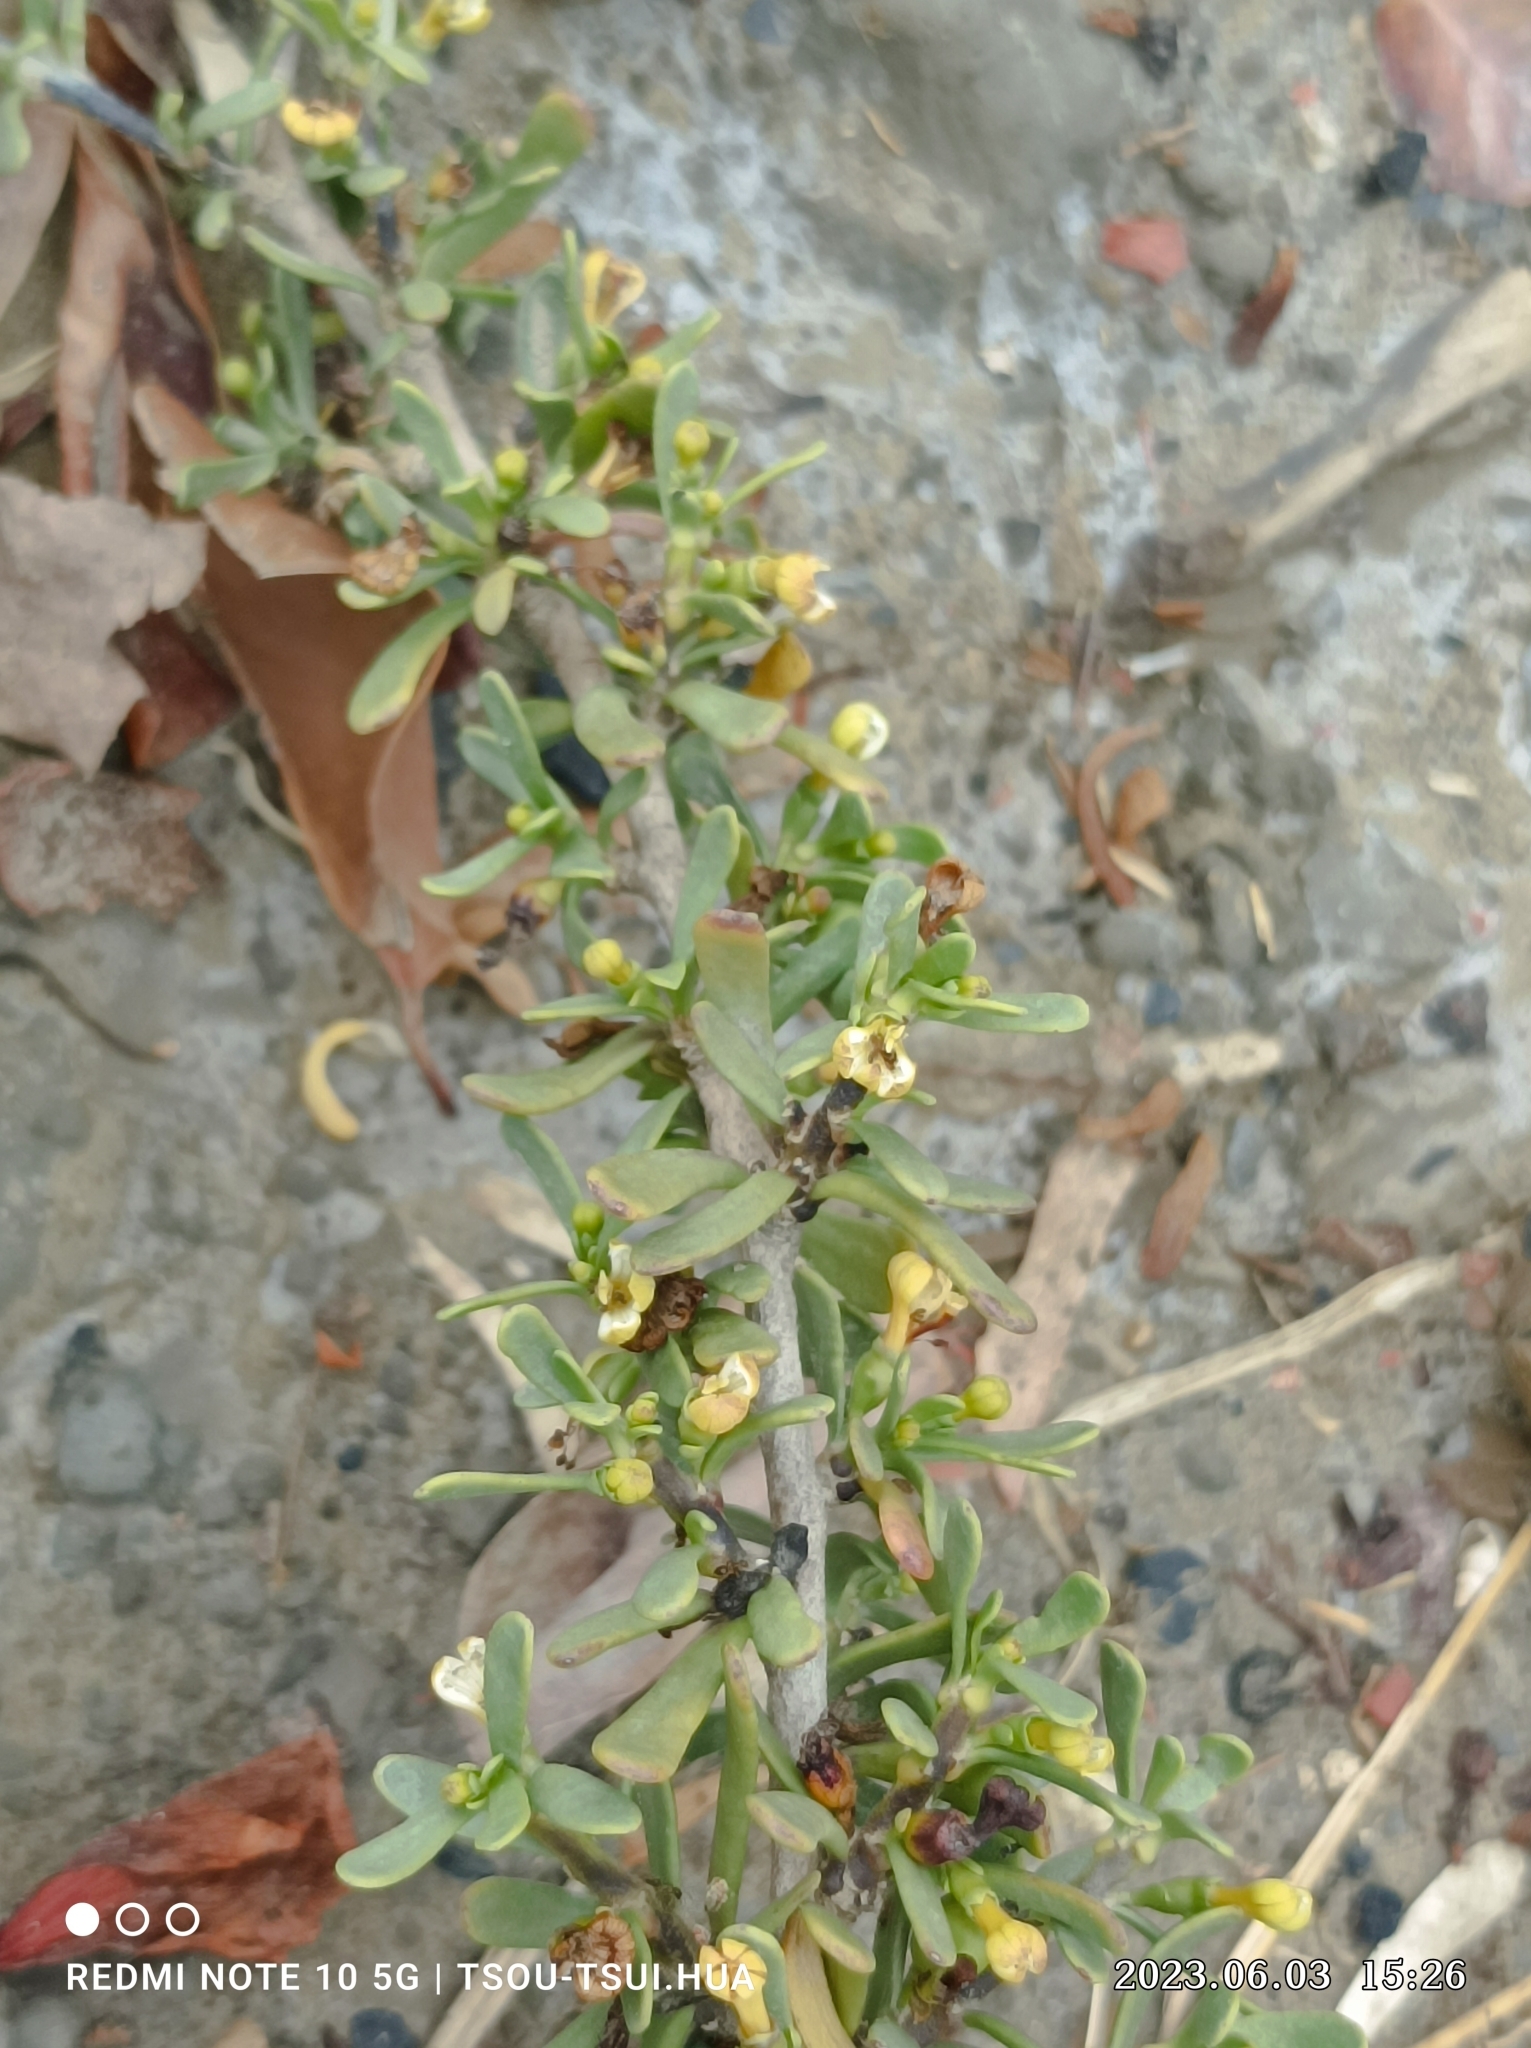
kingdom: Plantae
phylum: Tracheophyta
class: Magnoliopsida
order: Asterales
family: Goodeniaceae
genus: Scaevola
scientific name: Scaevola hainanensis
